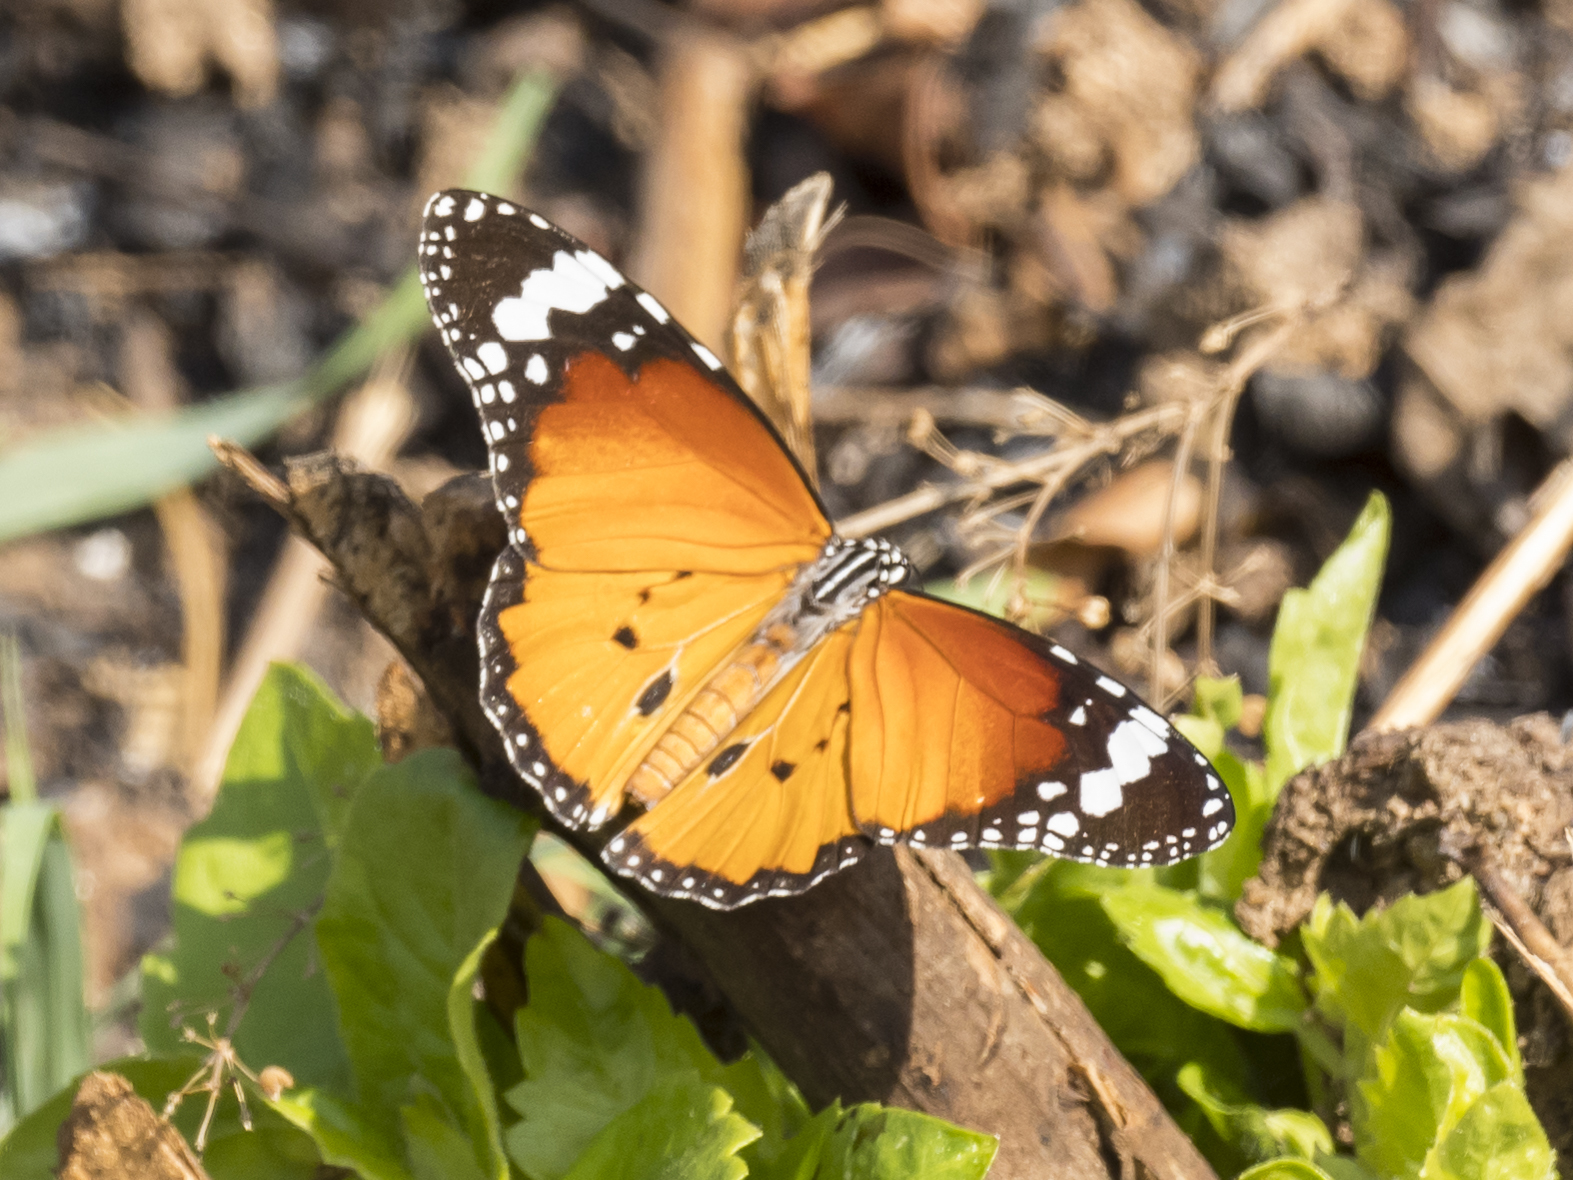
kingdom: Animalia
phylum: Arthropoda
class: Insecta
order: Lepidoptera
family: Nymphalidae
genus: Danaus
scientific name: Danaus chrysippus
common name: Plain tiger
